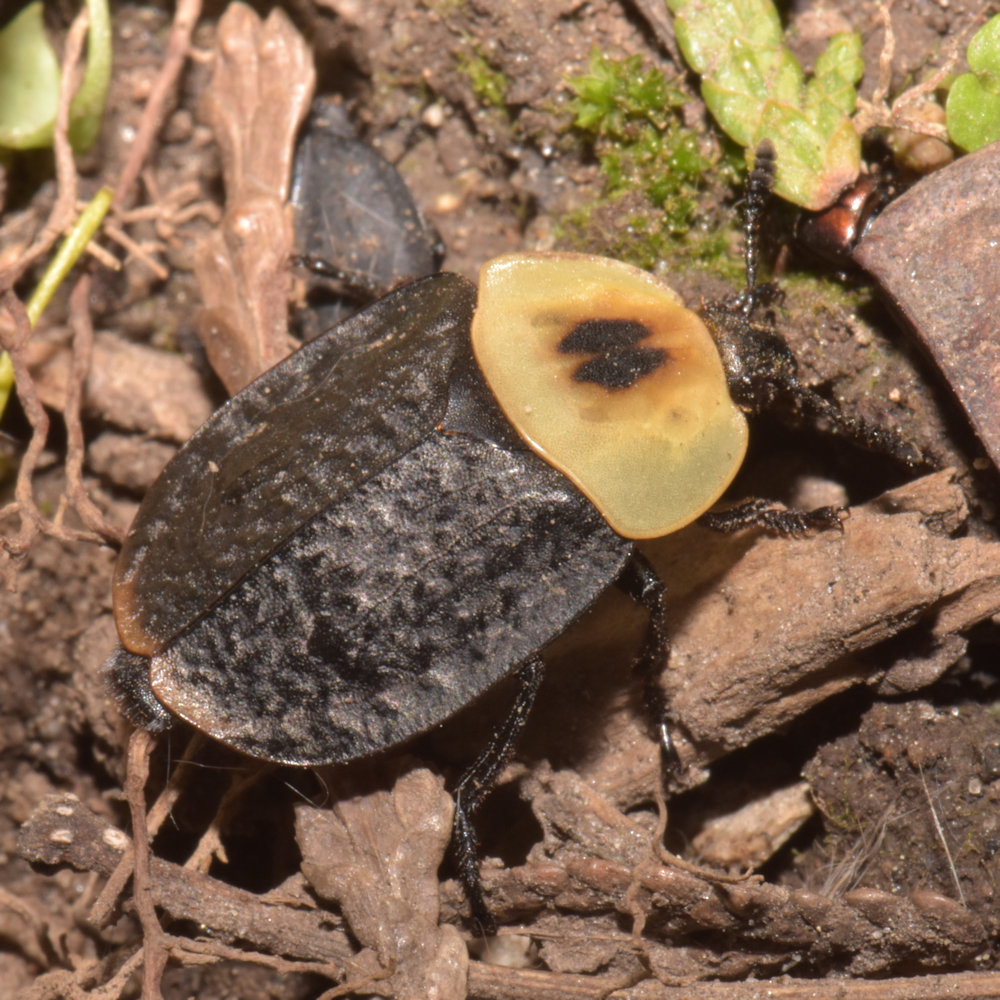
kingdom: Animalia
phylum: Arthropoda
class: Insecta
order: Coleoptera
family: Staphylinidae
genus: Necrophila
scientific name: Necrophila americana
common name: American carrion beetle
